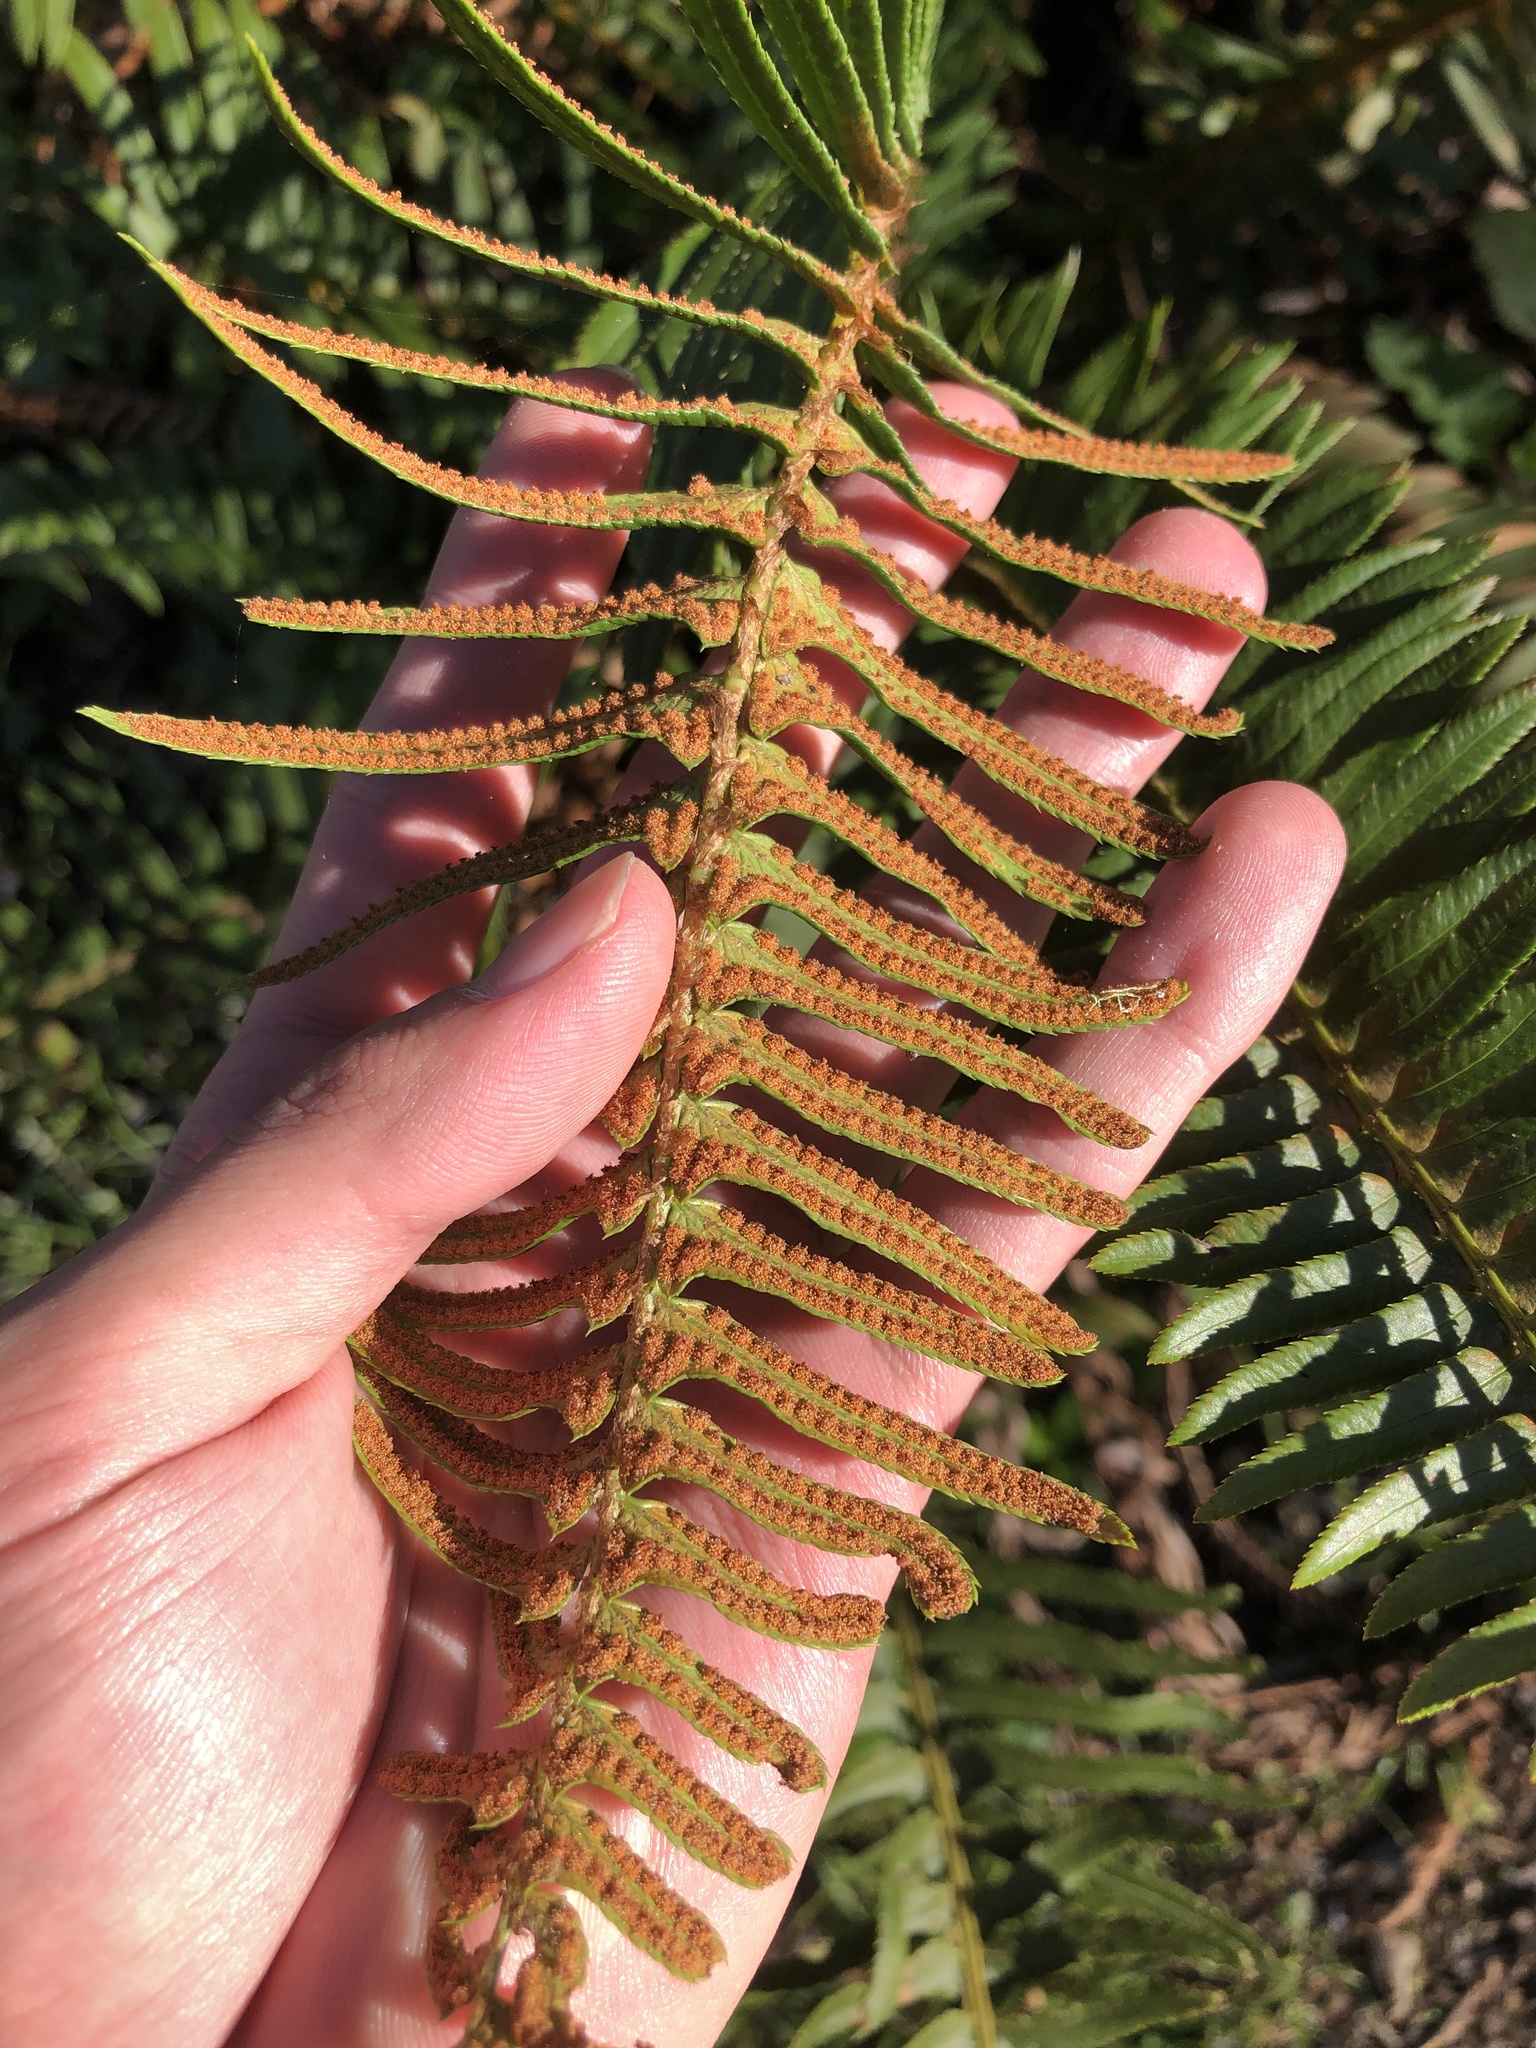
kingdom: Plantae
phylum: Tracheophyta
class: Polypodiopsida
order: Polypodiales
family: Dryopteridaceae
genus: Polystichum
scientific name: Polystichum munitum
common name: Western sword-fern
